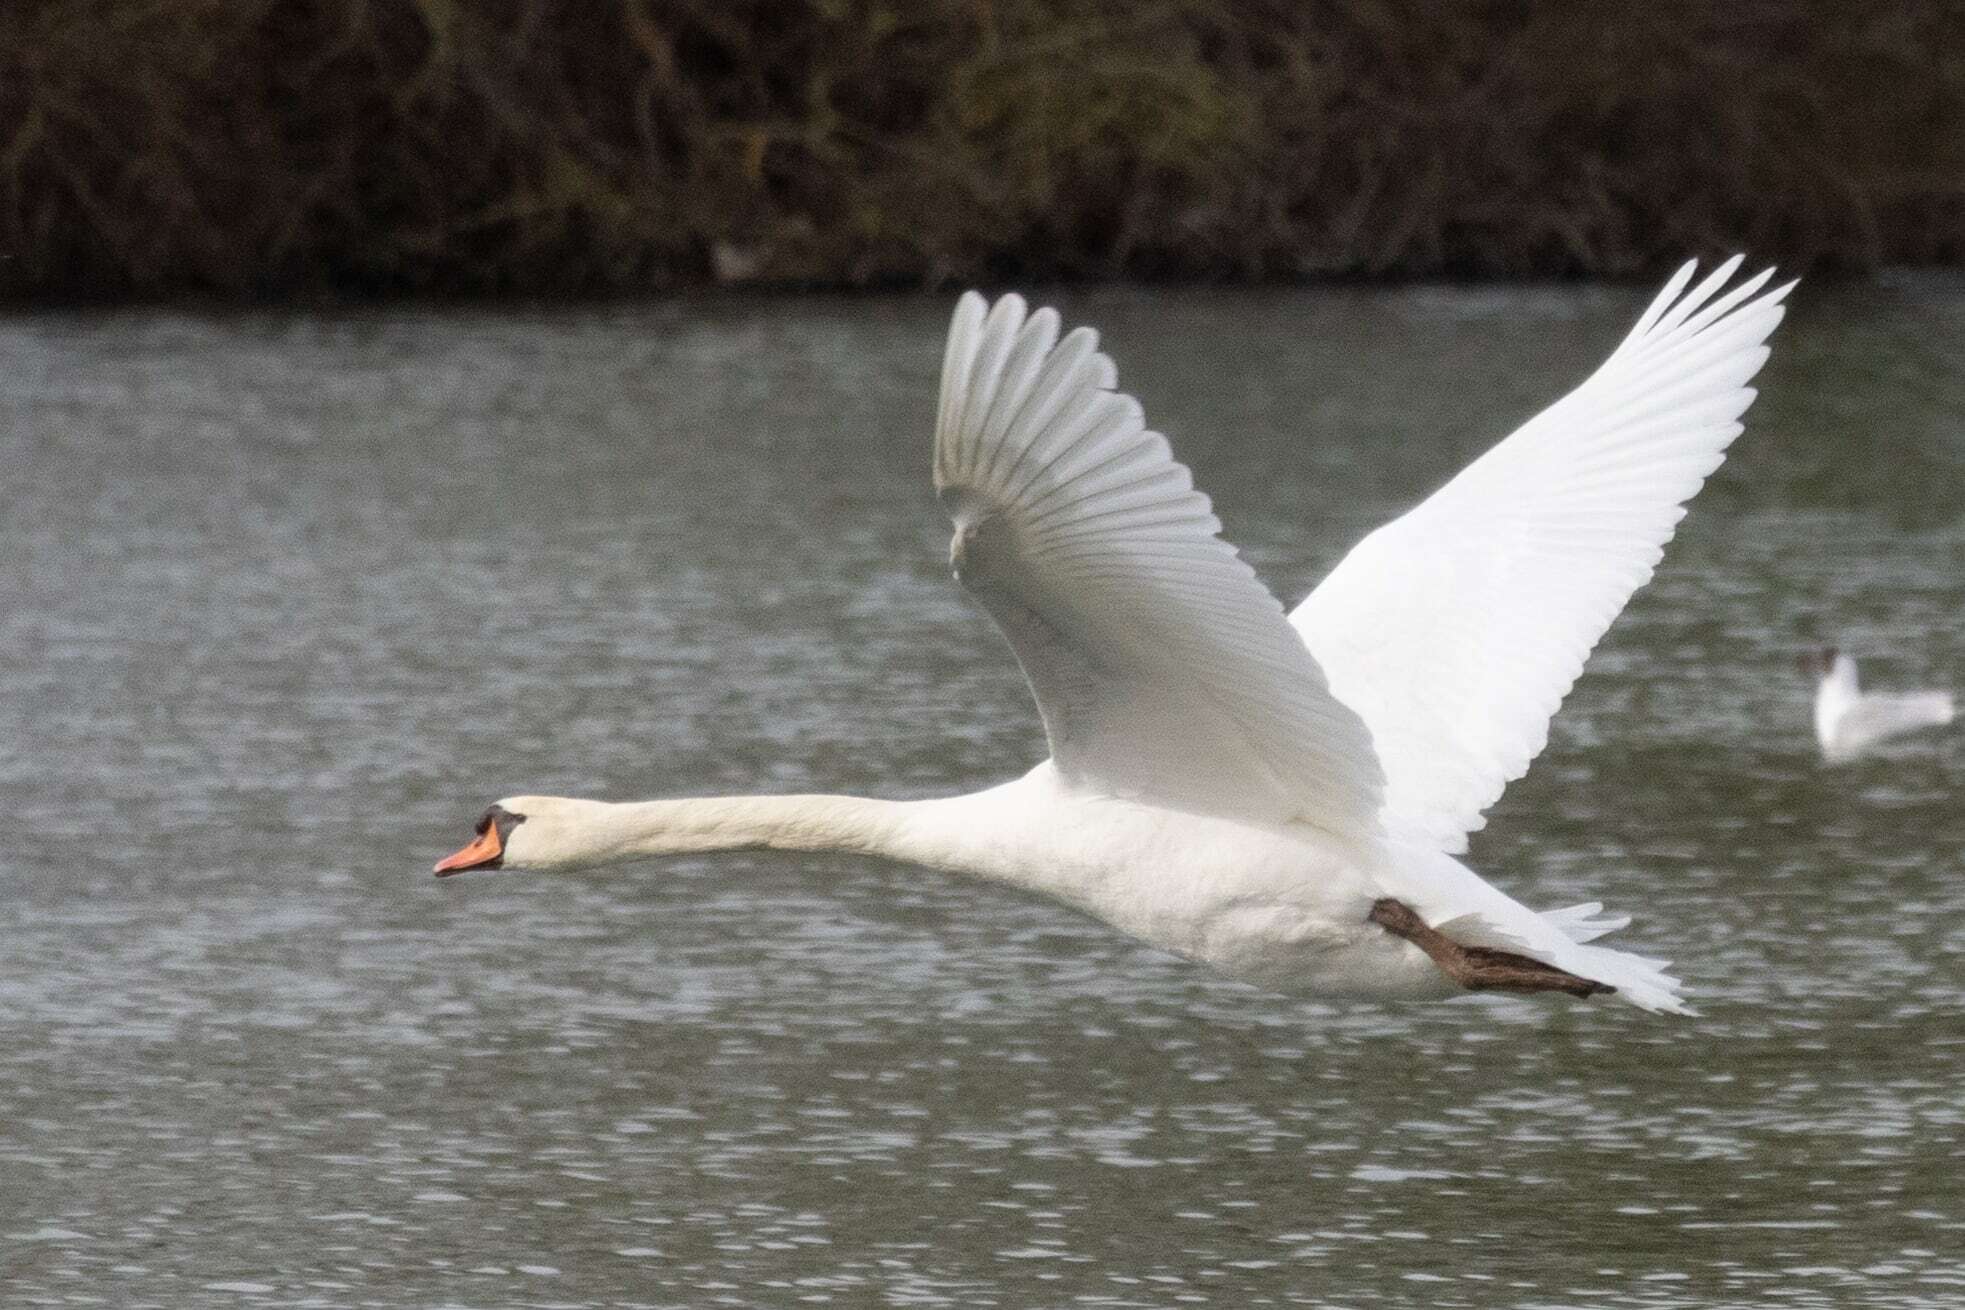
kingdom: Animalia
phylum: Chordata
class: Aves
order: Anseriformes
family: Anatidae
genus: Cygnus
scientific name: Cygnus olor
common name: Mute swan
